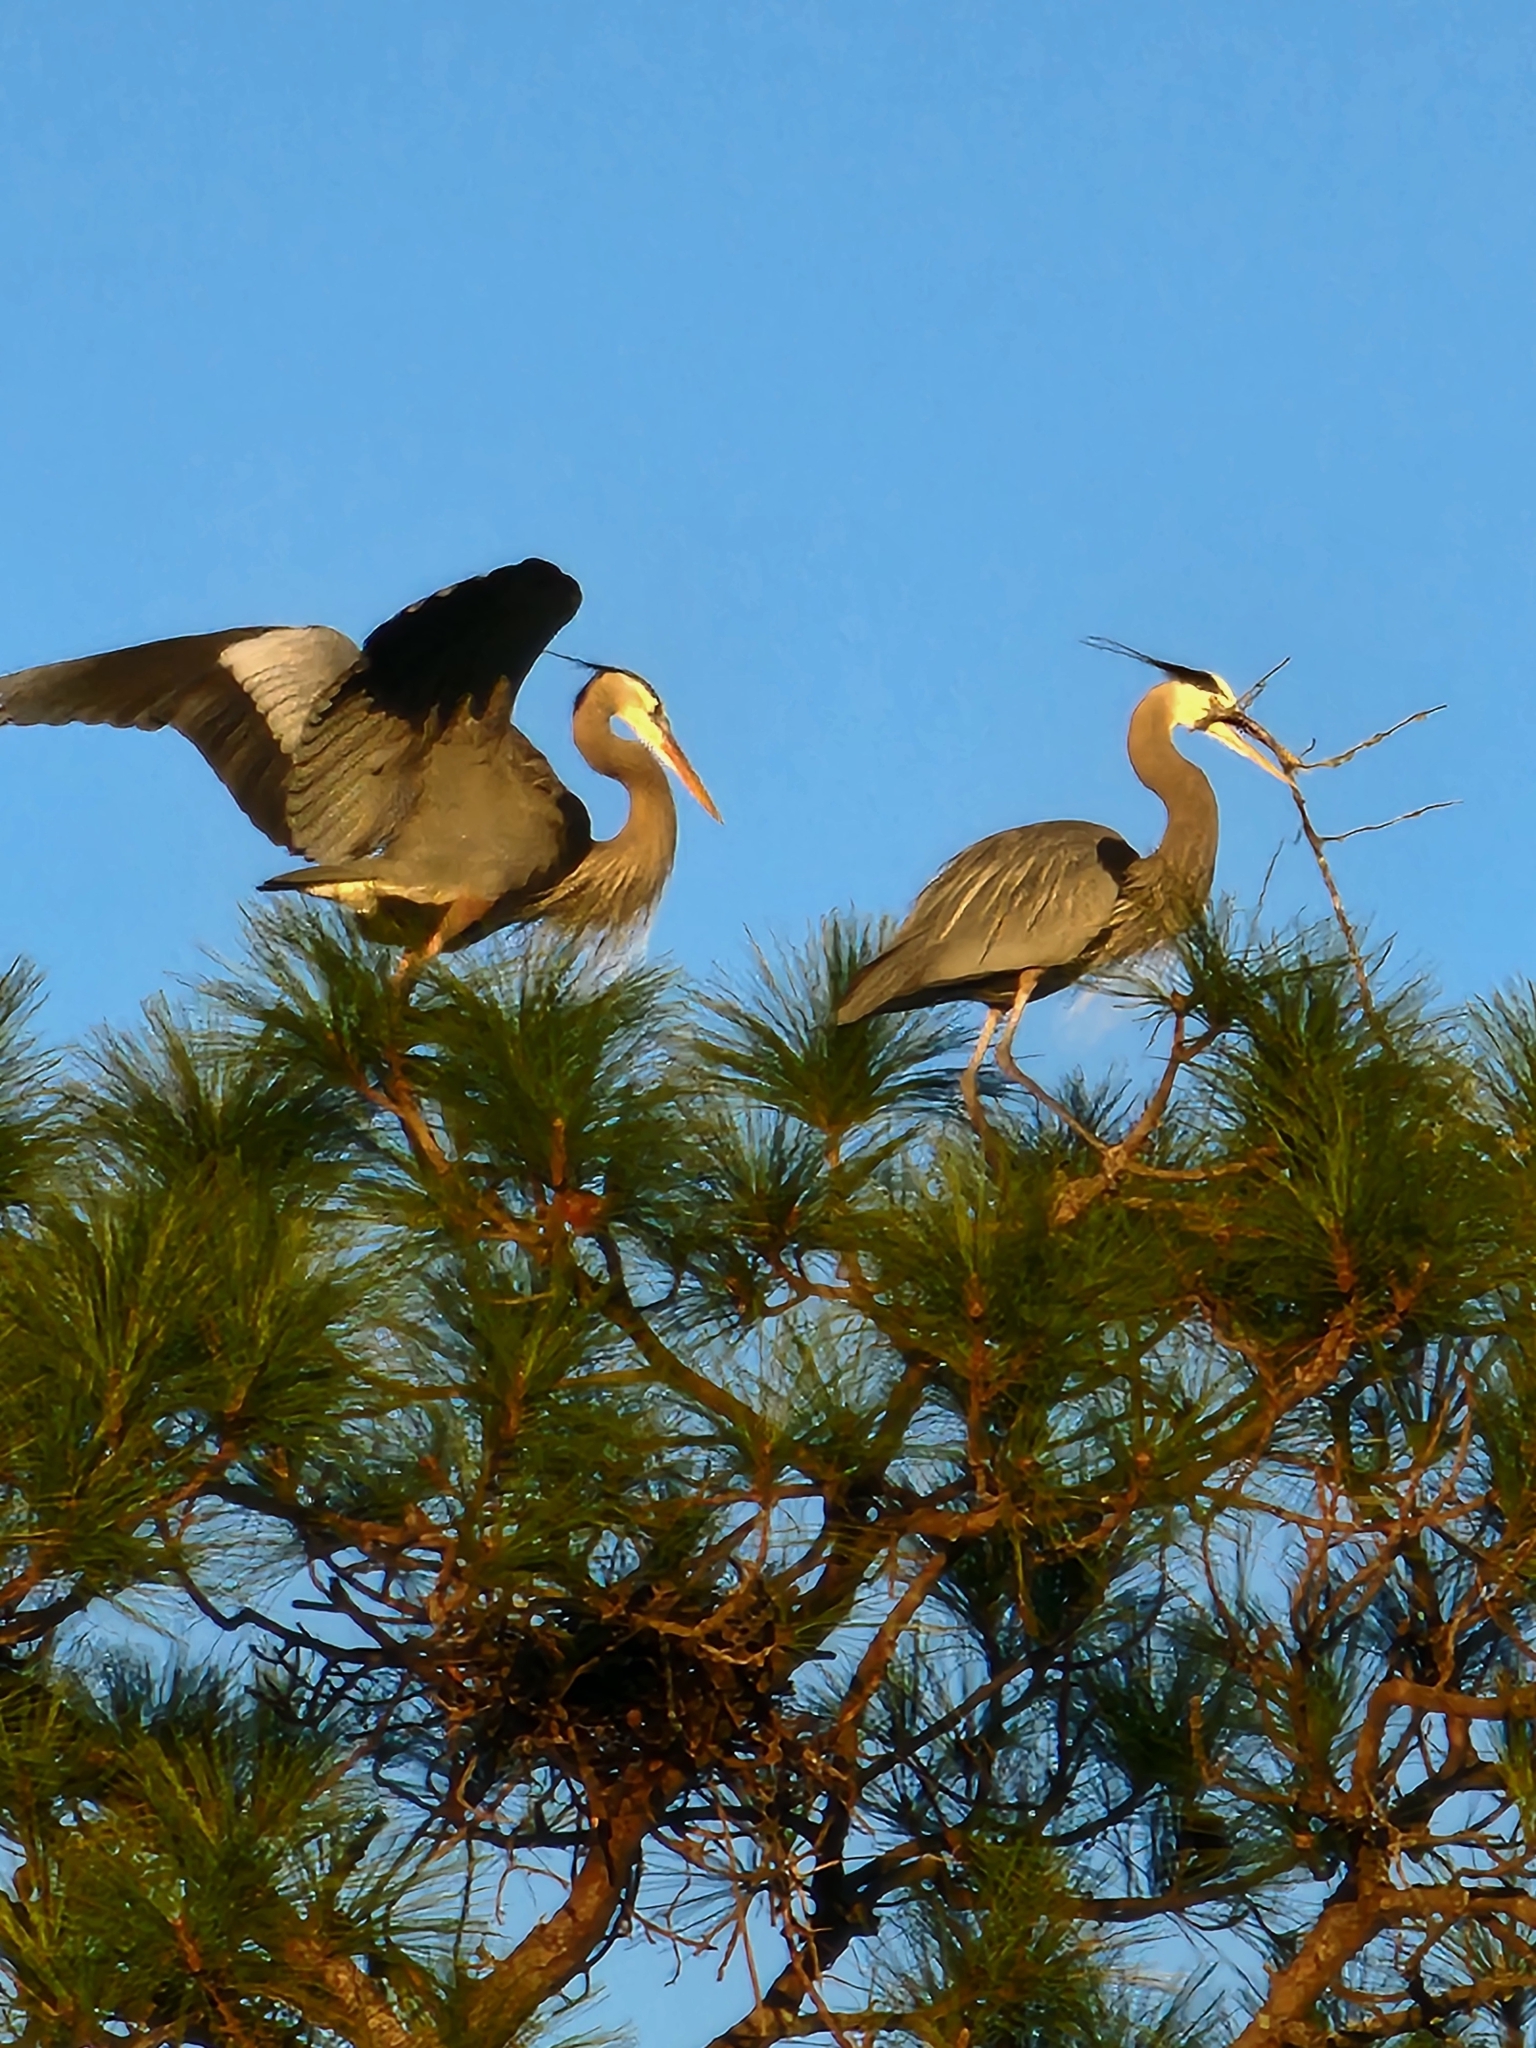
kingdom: Animalia
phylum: Chordata
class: Aves
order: Pelecaniformes
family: Ardeidae
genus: Ardea
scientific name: Ardea herodias
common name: Great blue heron
